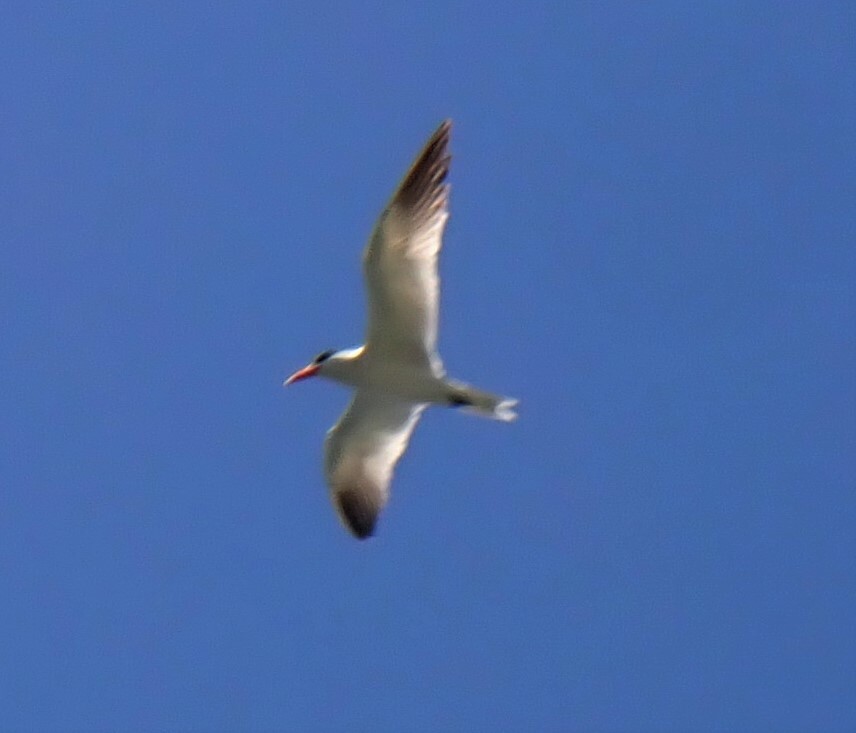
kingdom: Animalia
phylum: Chordata
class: Aves
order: Charadriiformes
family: Laridae
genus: Hydroprogne
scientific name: Hydroprogne caspia
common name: Caspian tern
